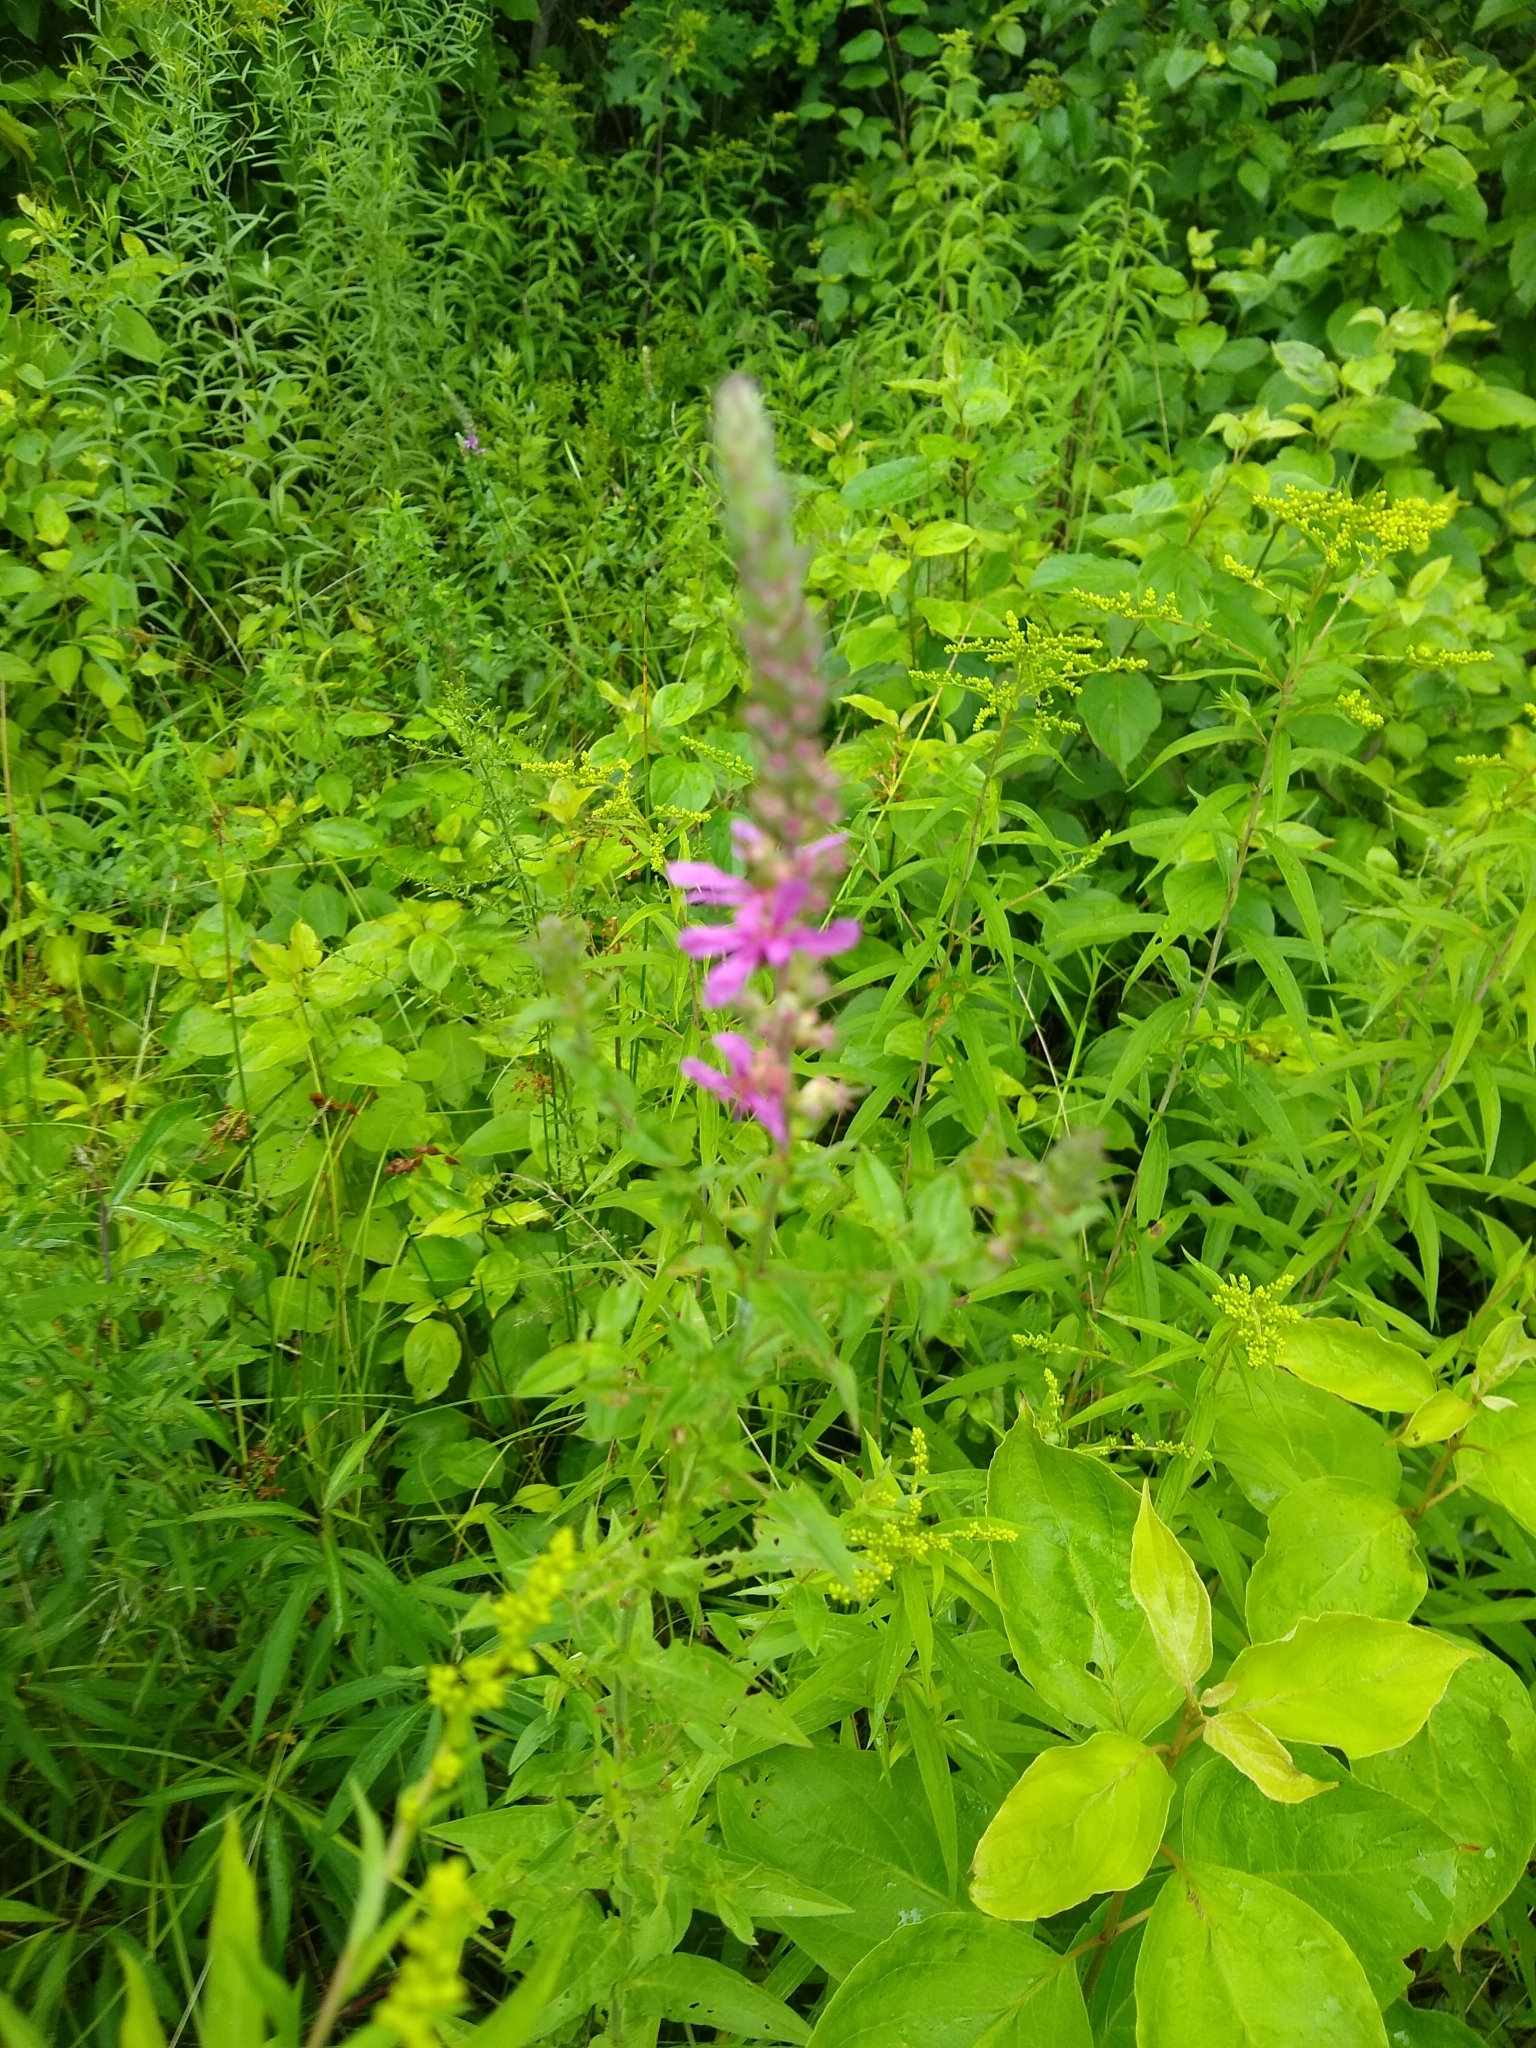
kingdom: Plantae
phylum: Tracheophyta
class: Magnoliopsida
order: Myrtales
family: Lythraceae
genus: Lythrum
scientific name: Lythrum salicaria
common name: Purple loosestrife
